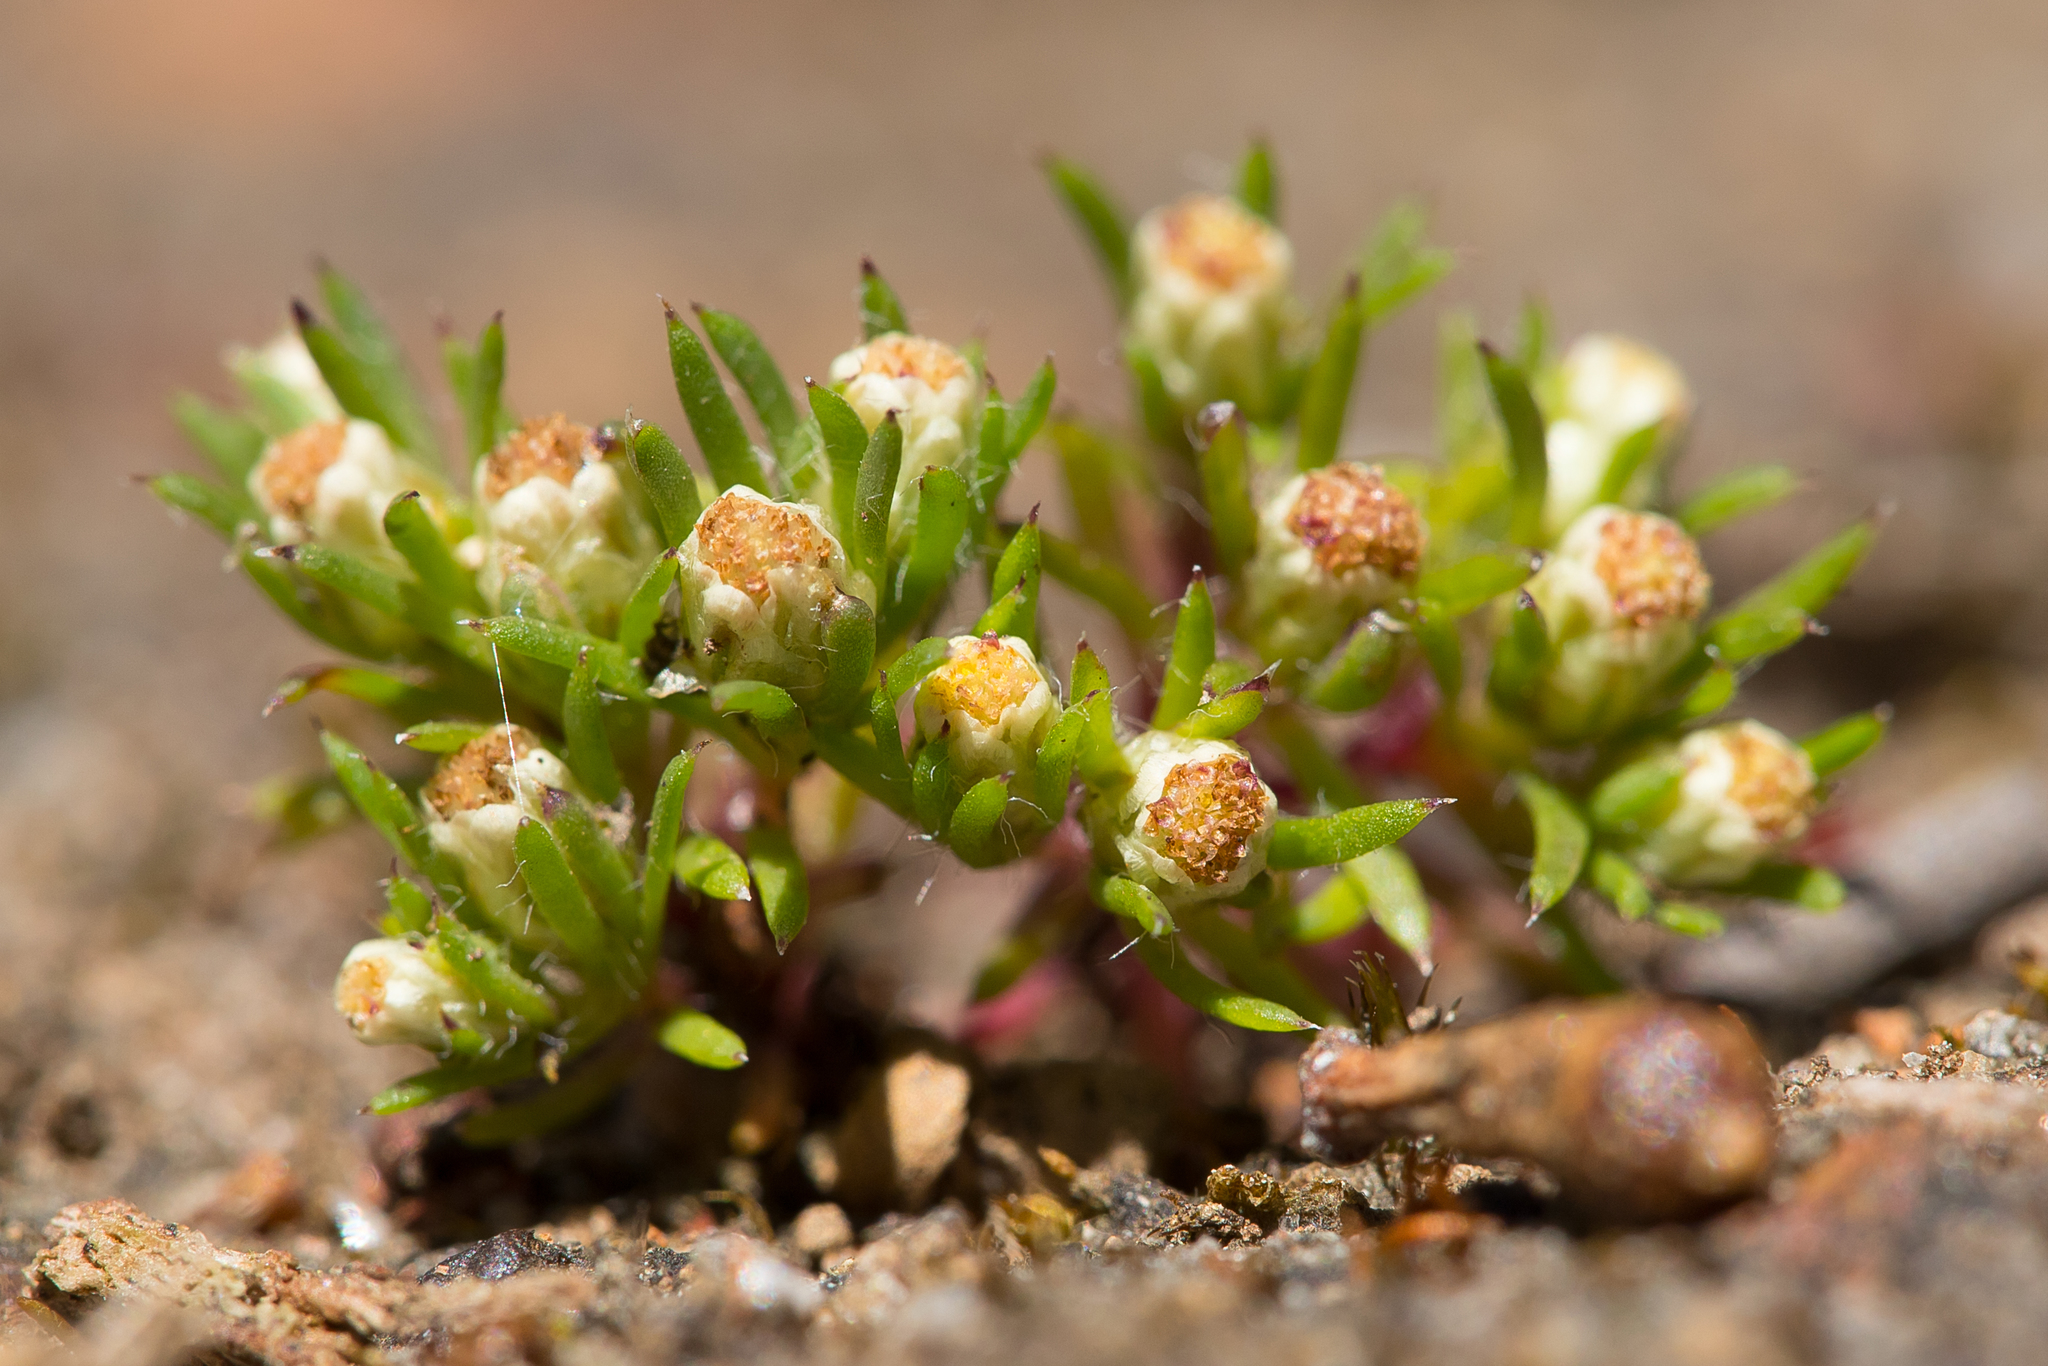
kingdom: Plantae
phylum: Tracheophyta
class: Magnoliopsida
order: Asterales
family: Asteraceae
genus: Hyalosperma
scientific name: Hyalosperma demissum
